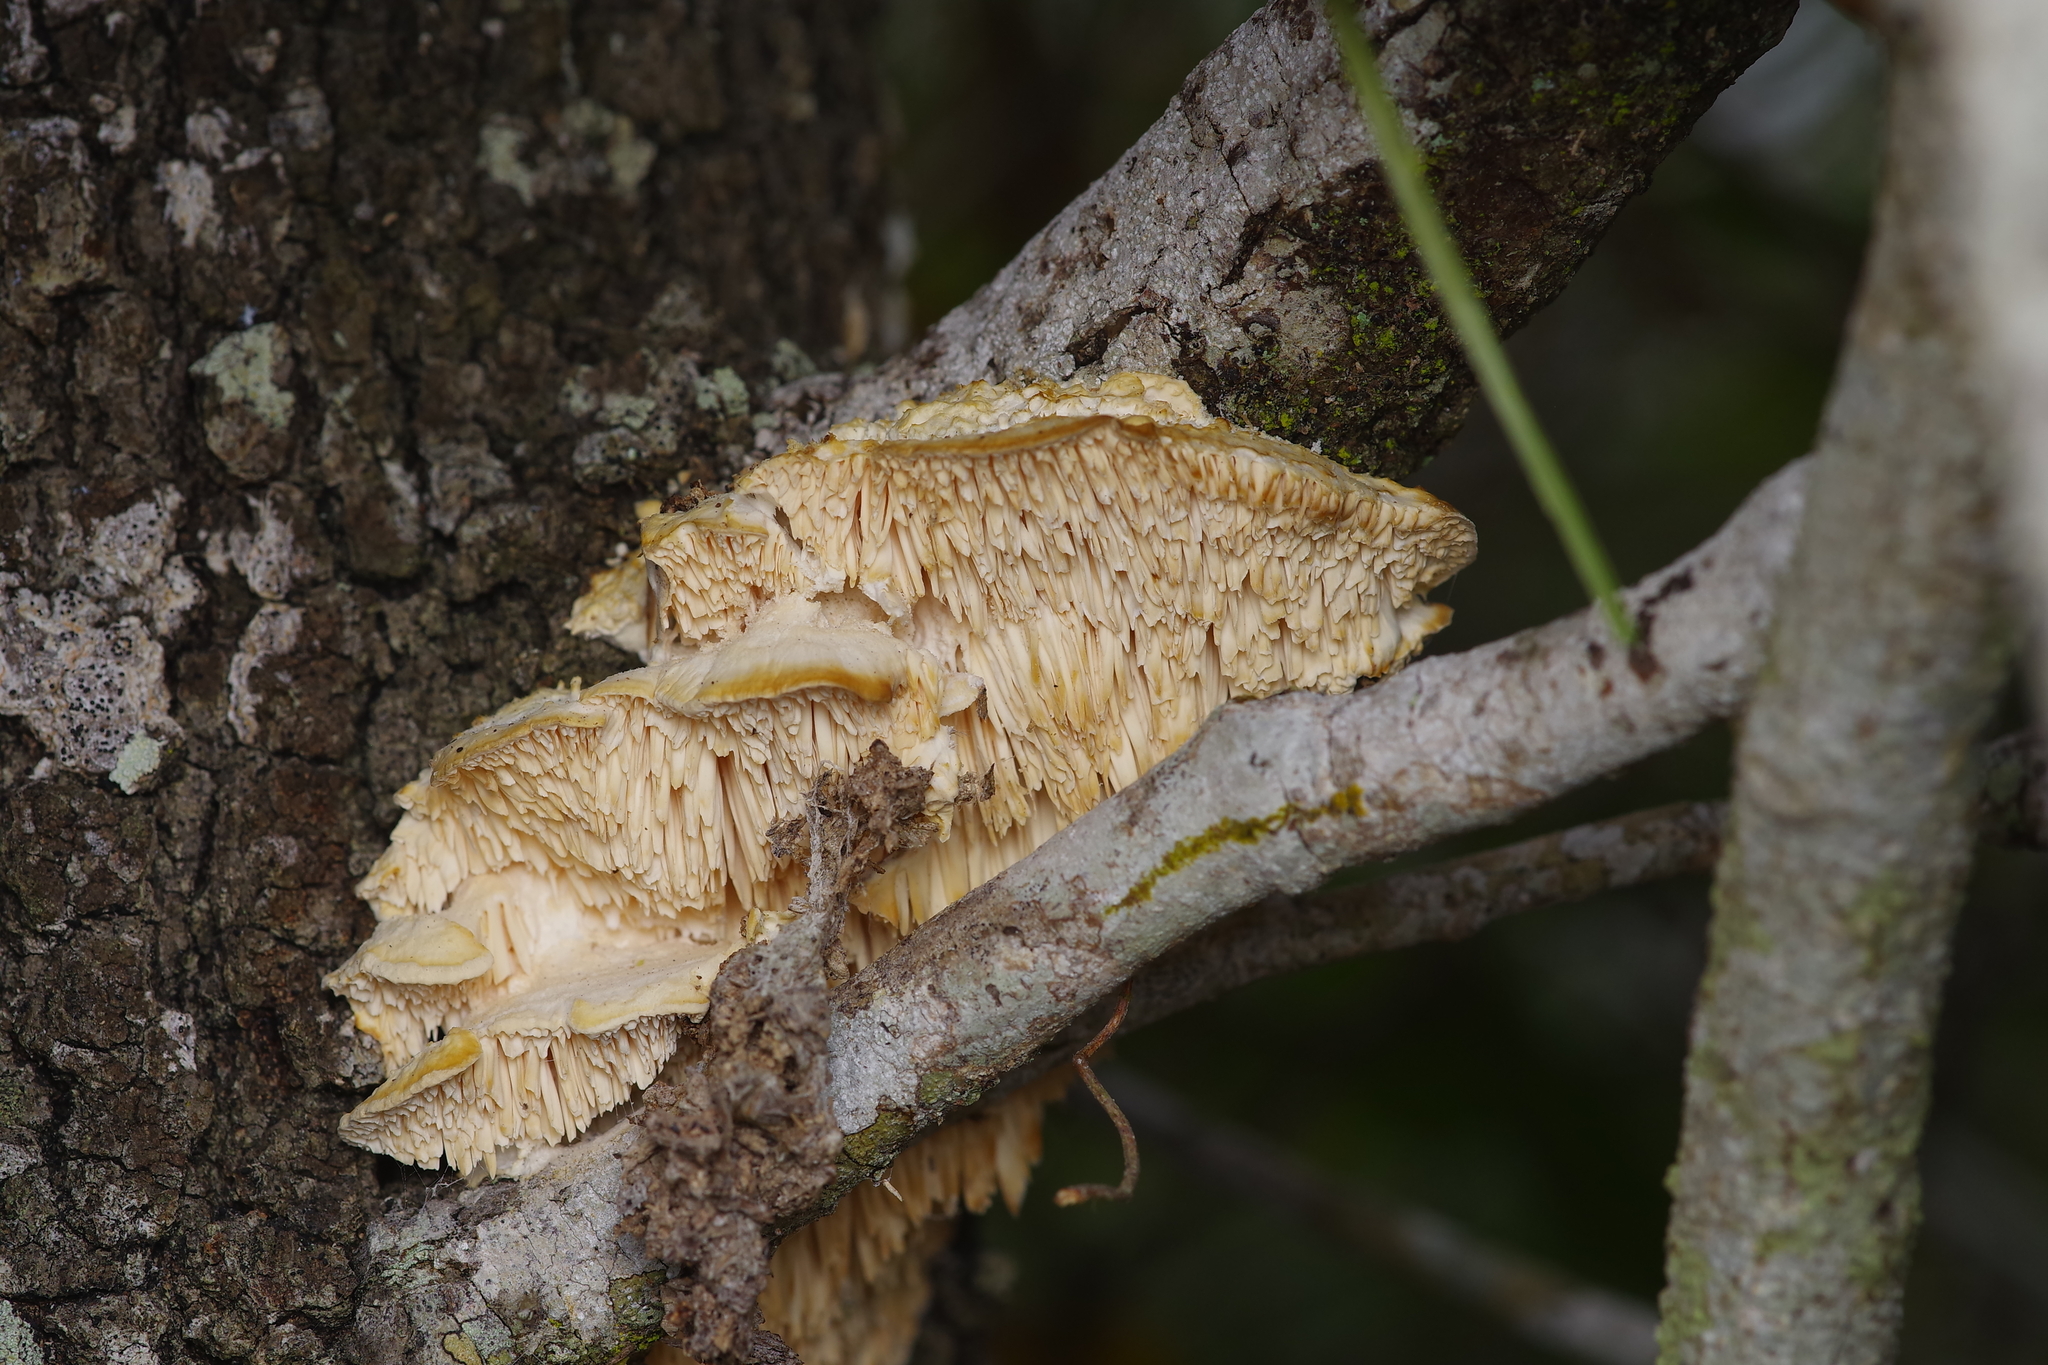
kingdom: Fungi
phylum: Basidiomycota
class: Agaricomycetes
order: Polyporales
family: Meruliaceae
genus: Irpiciporus
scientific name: Irpiciporus pachyodon
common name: Marshmallow polypore
